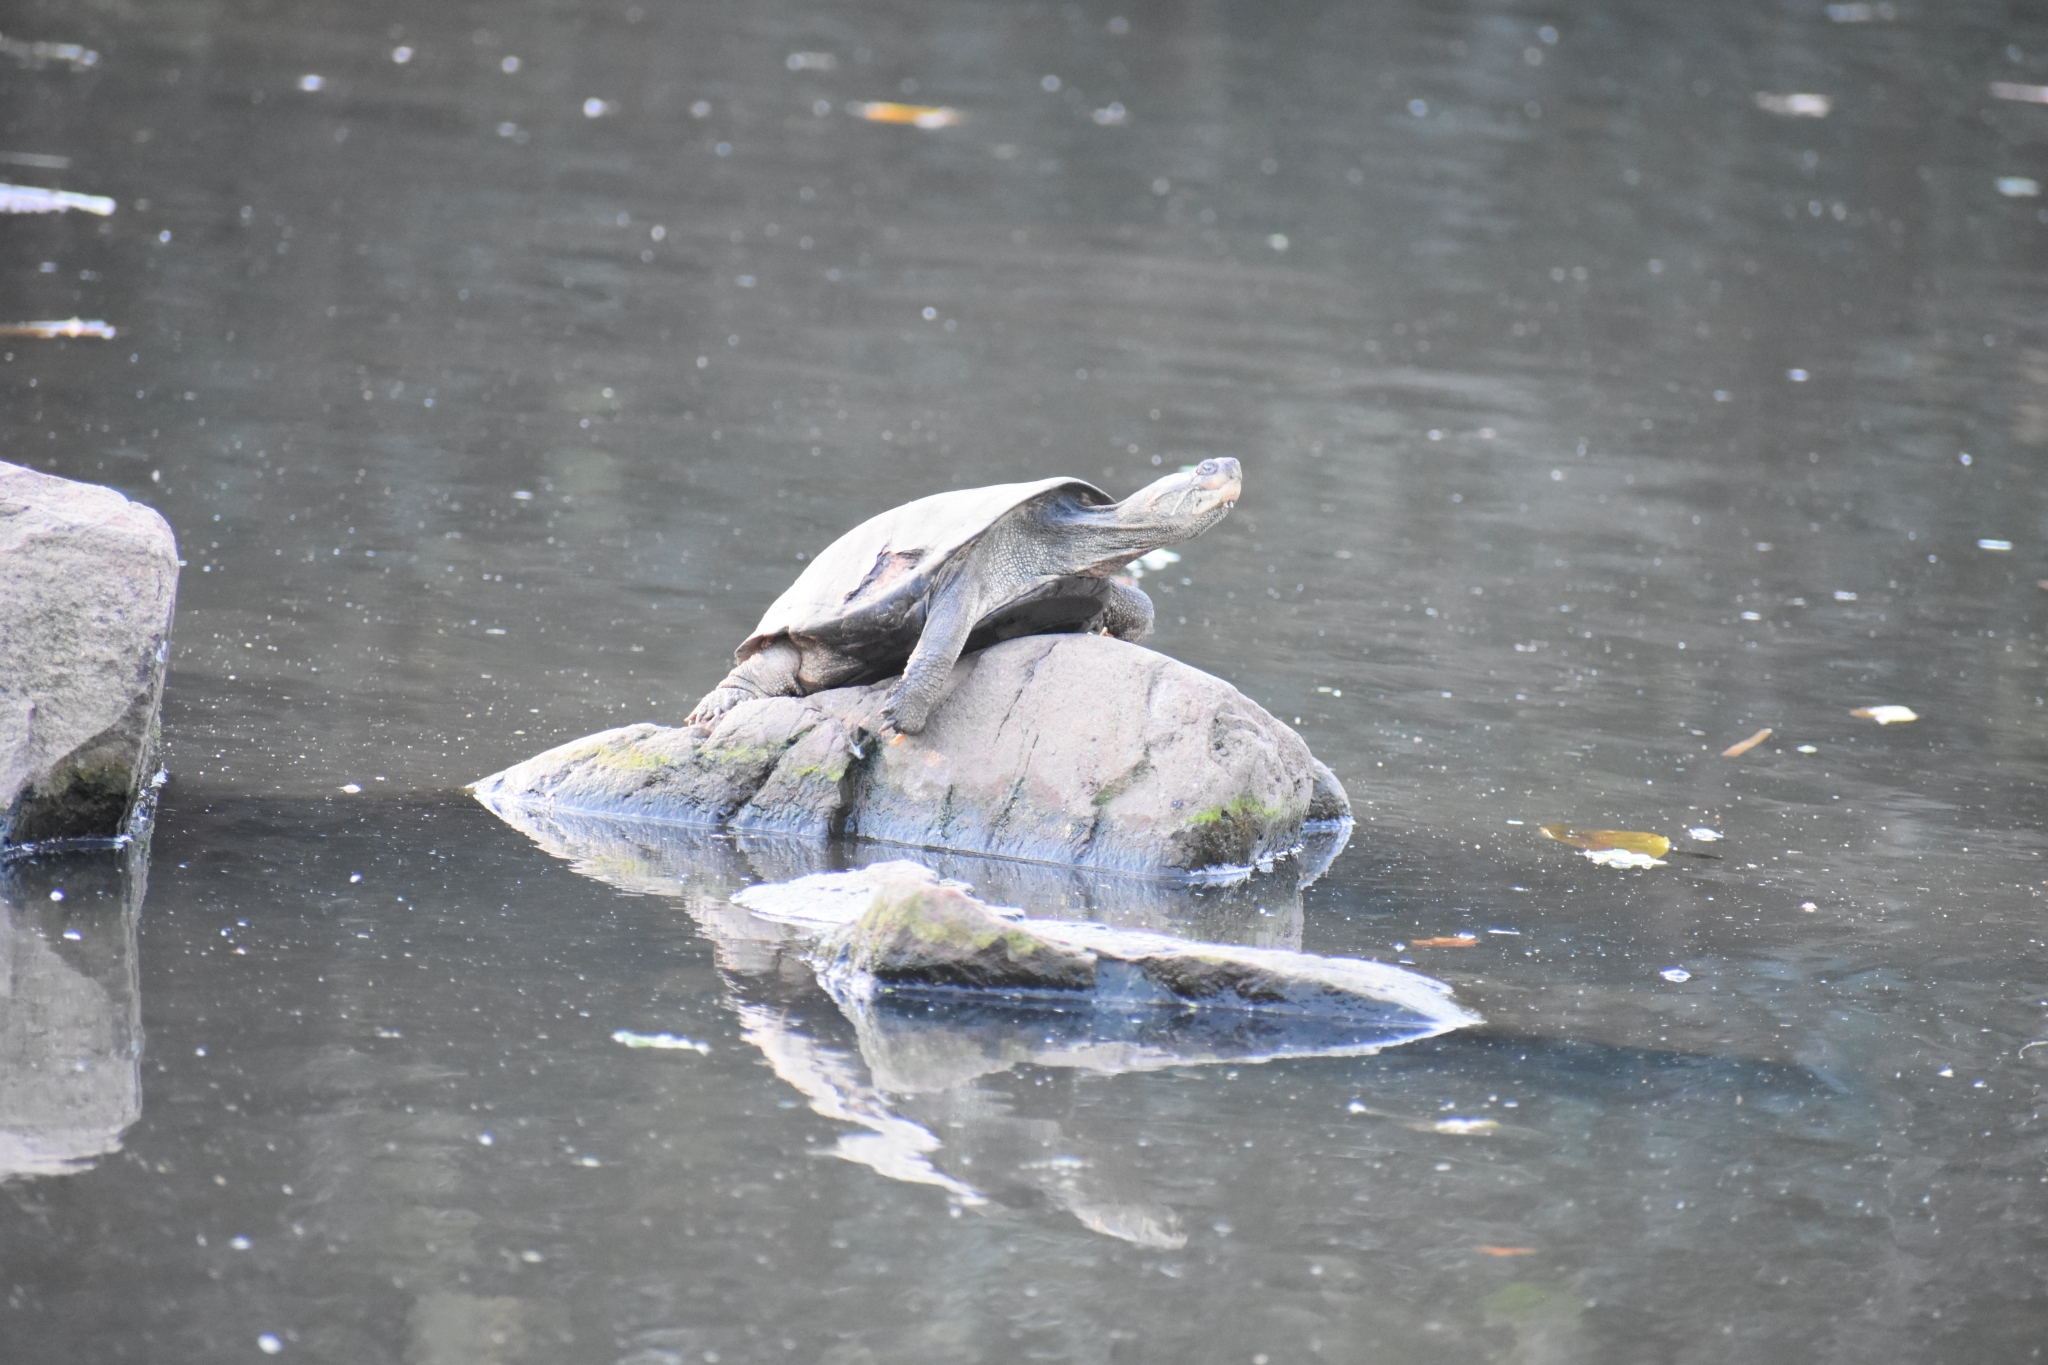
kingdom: Animalia
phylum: Chordata
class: Testudines
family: Pelomedusidae
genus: Pelomedusa
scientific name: Pelomedusa galeata
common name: South african helmeted terrapin
